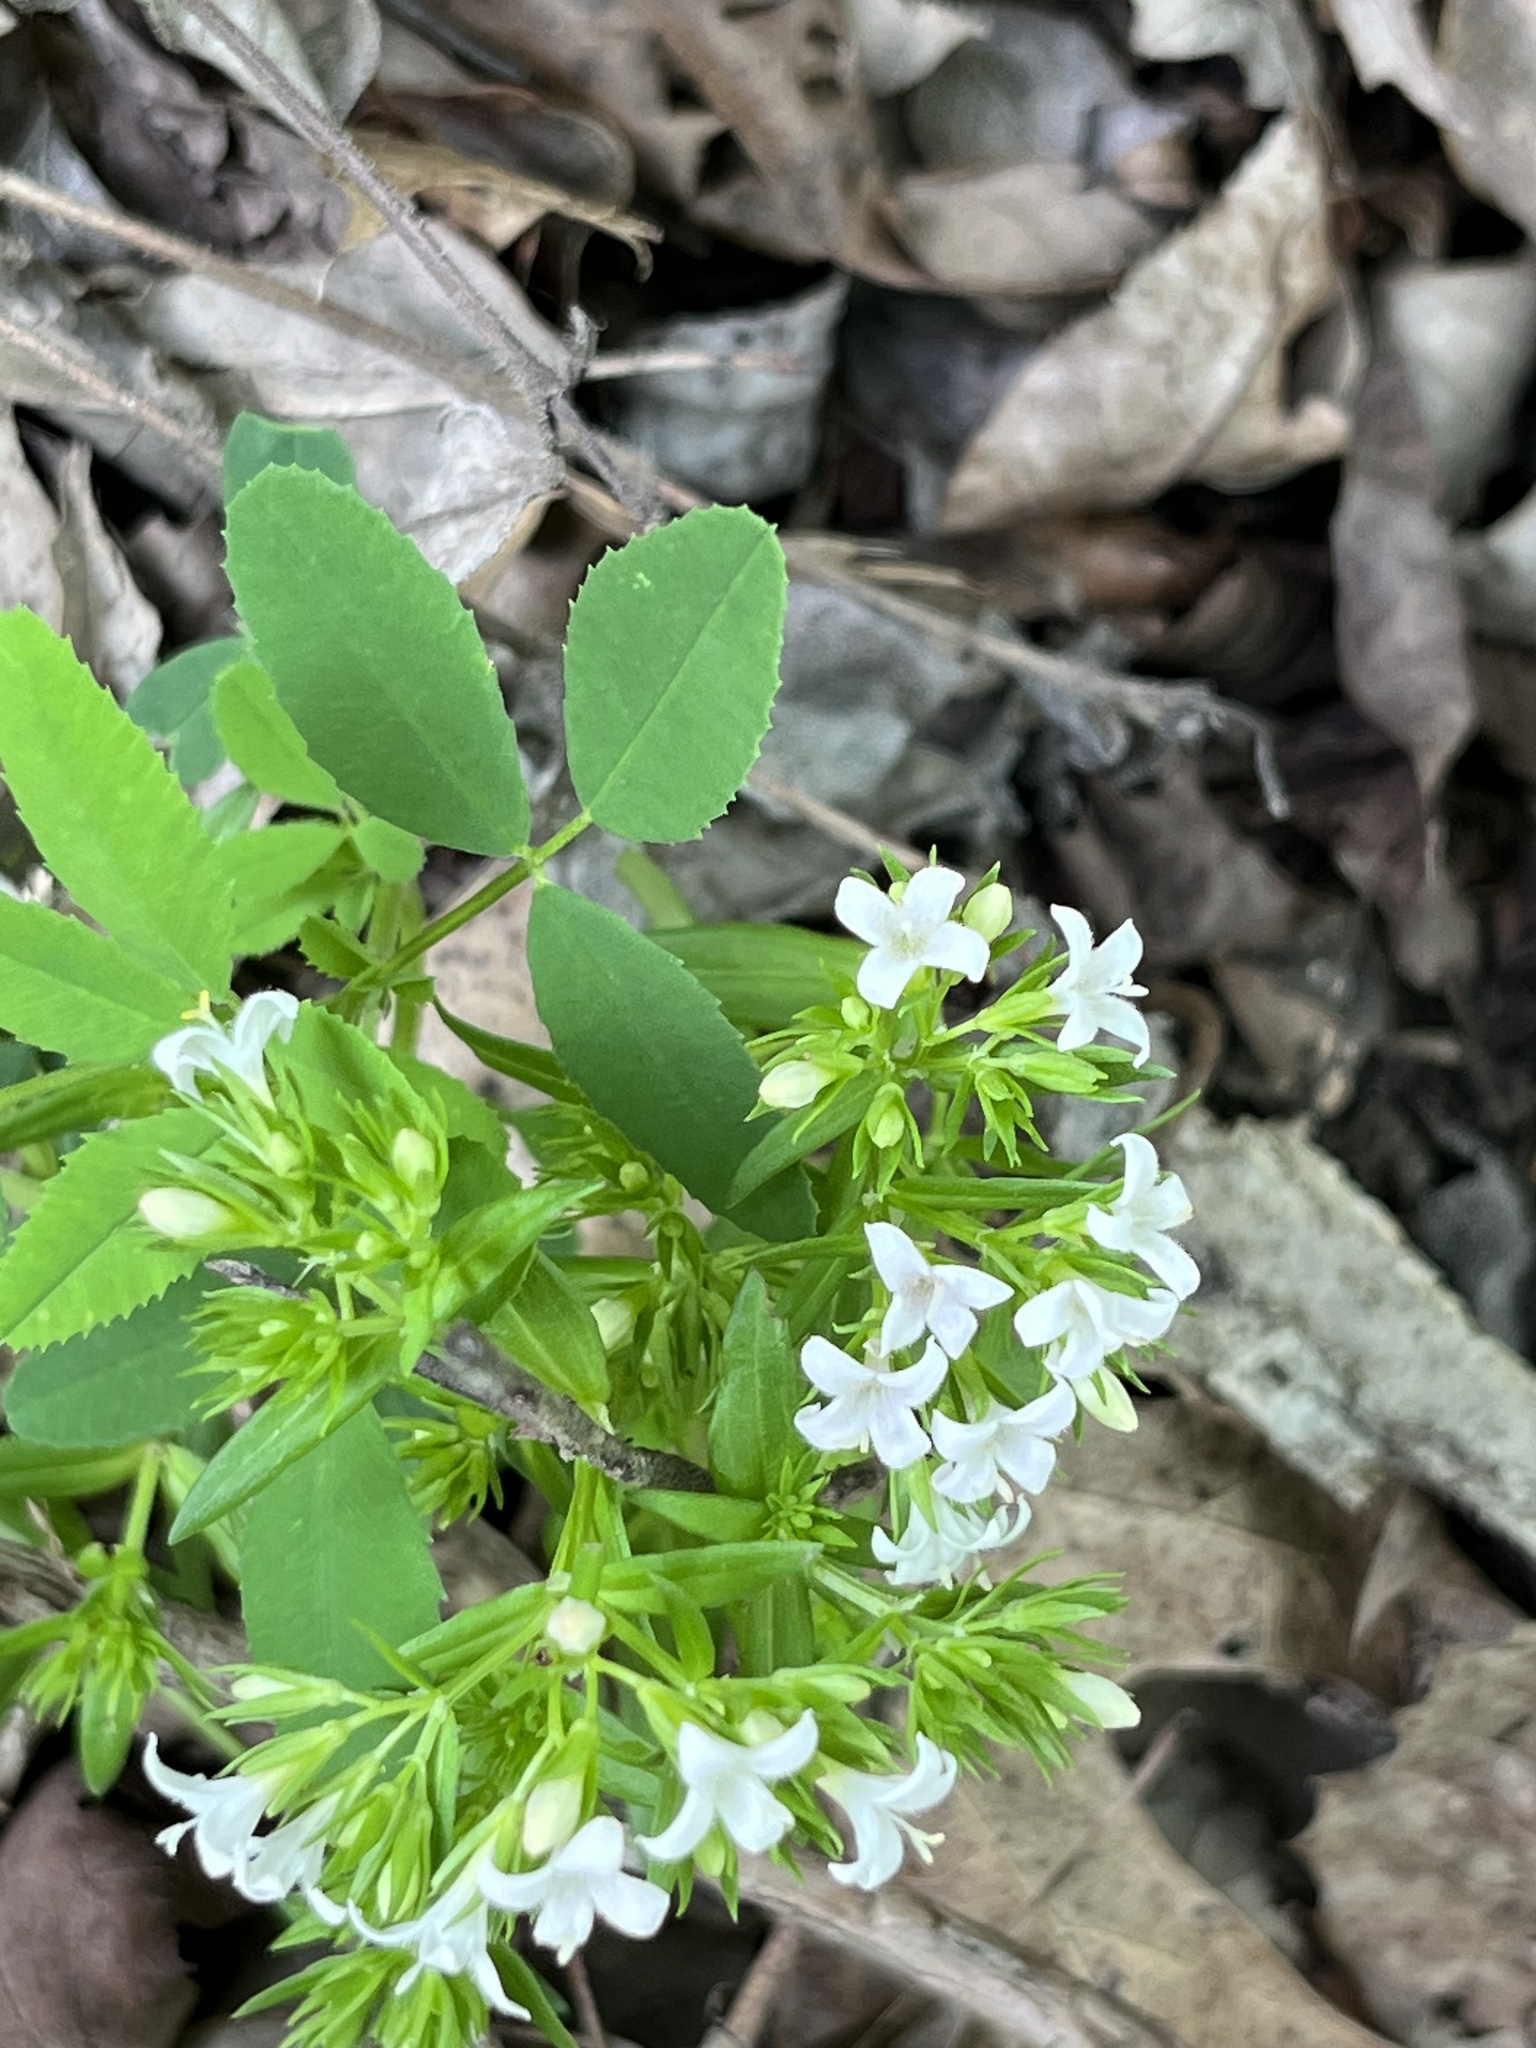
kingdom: Plantae
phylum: Tracheophyta
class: Magnoliopsida
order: Gentianales
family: Rubiaceae
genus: Houstonia
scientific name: Houstonia purpurea
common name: Summer bluet
